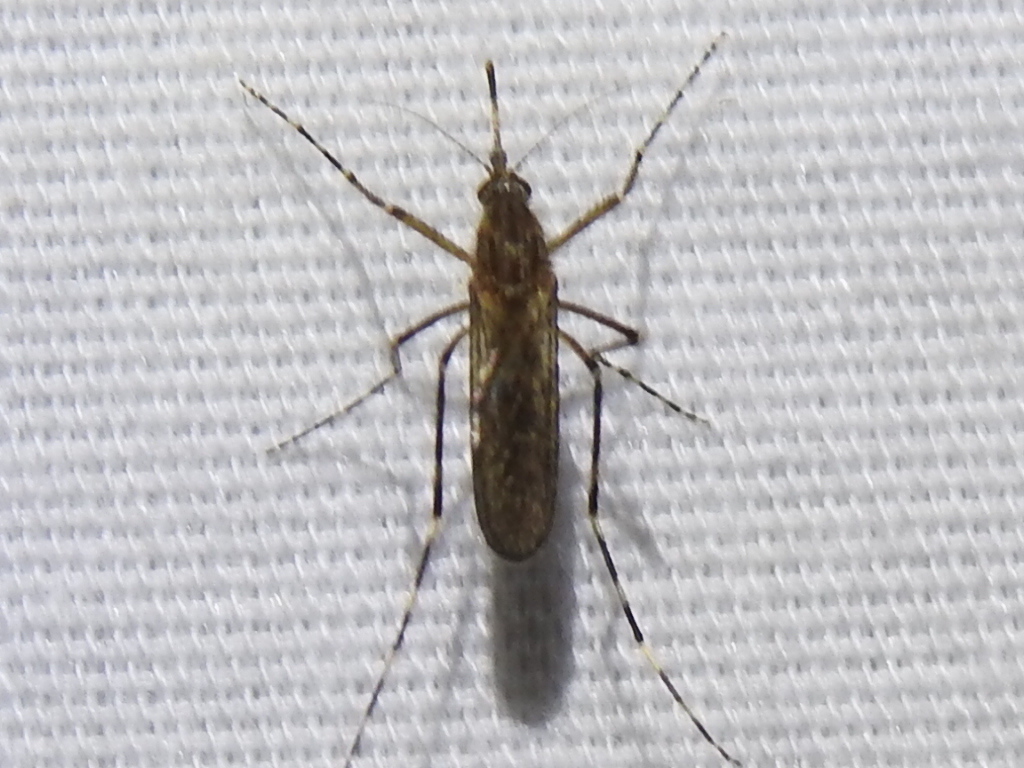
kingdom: Animalia
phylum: Arthropoda
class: Insecta
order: Diptera
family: Culicidae
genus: Coquillettidia
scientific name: Coquillettidia perturbans
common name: Cattail mosquito
